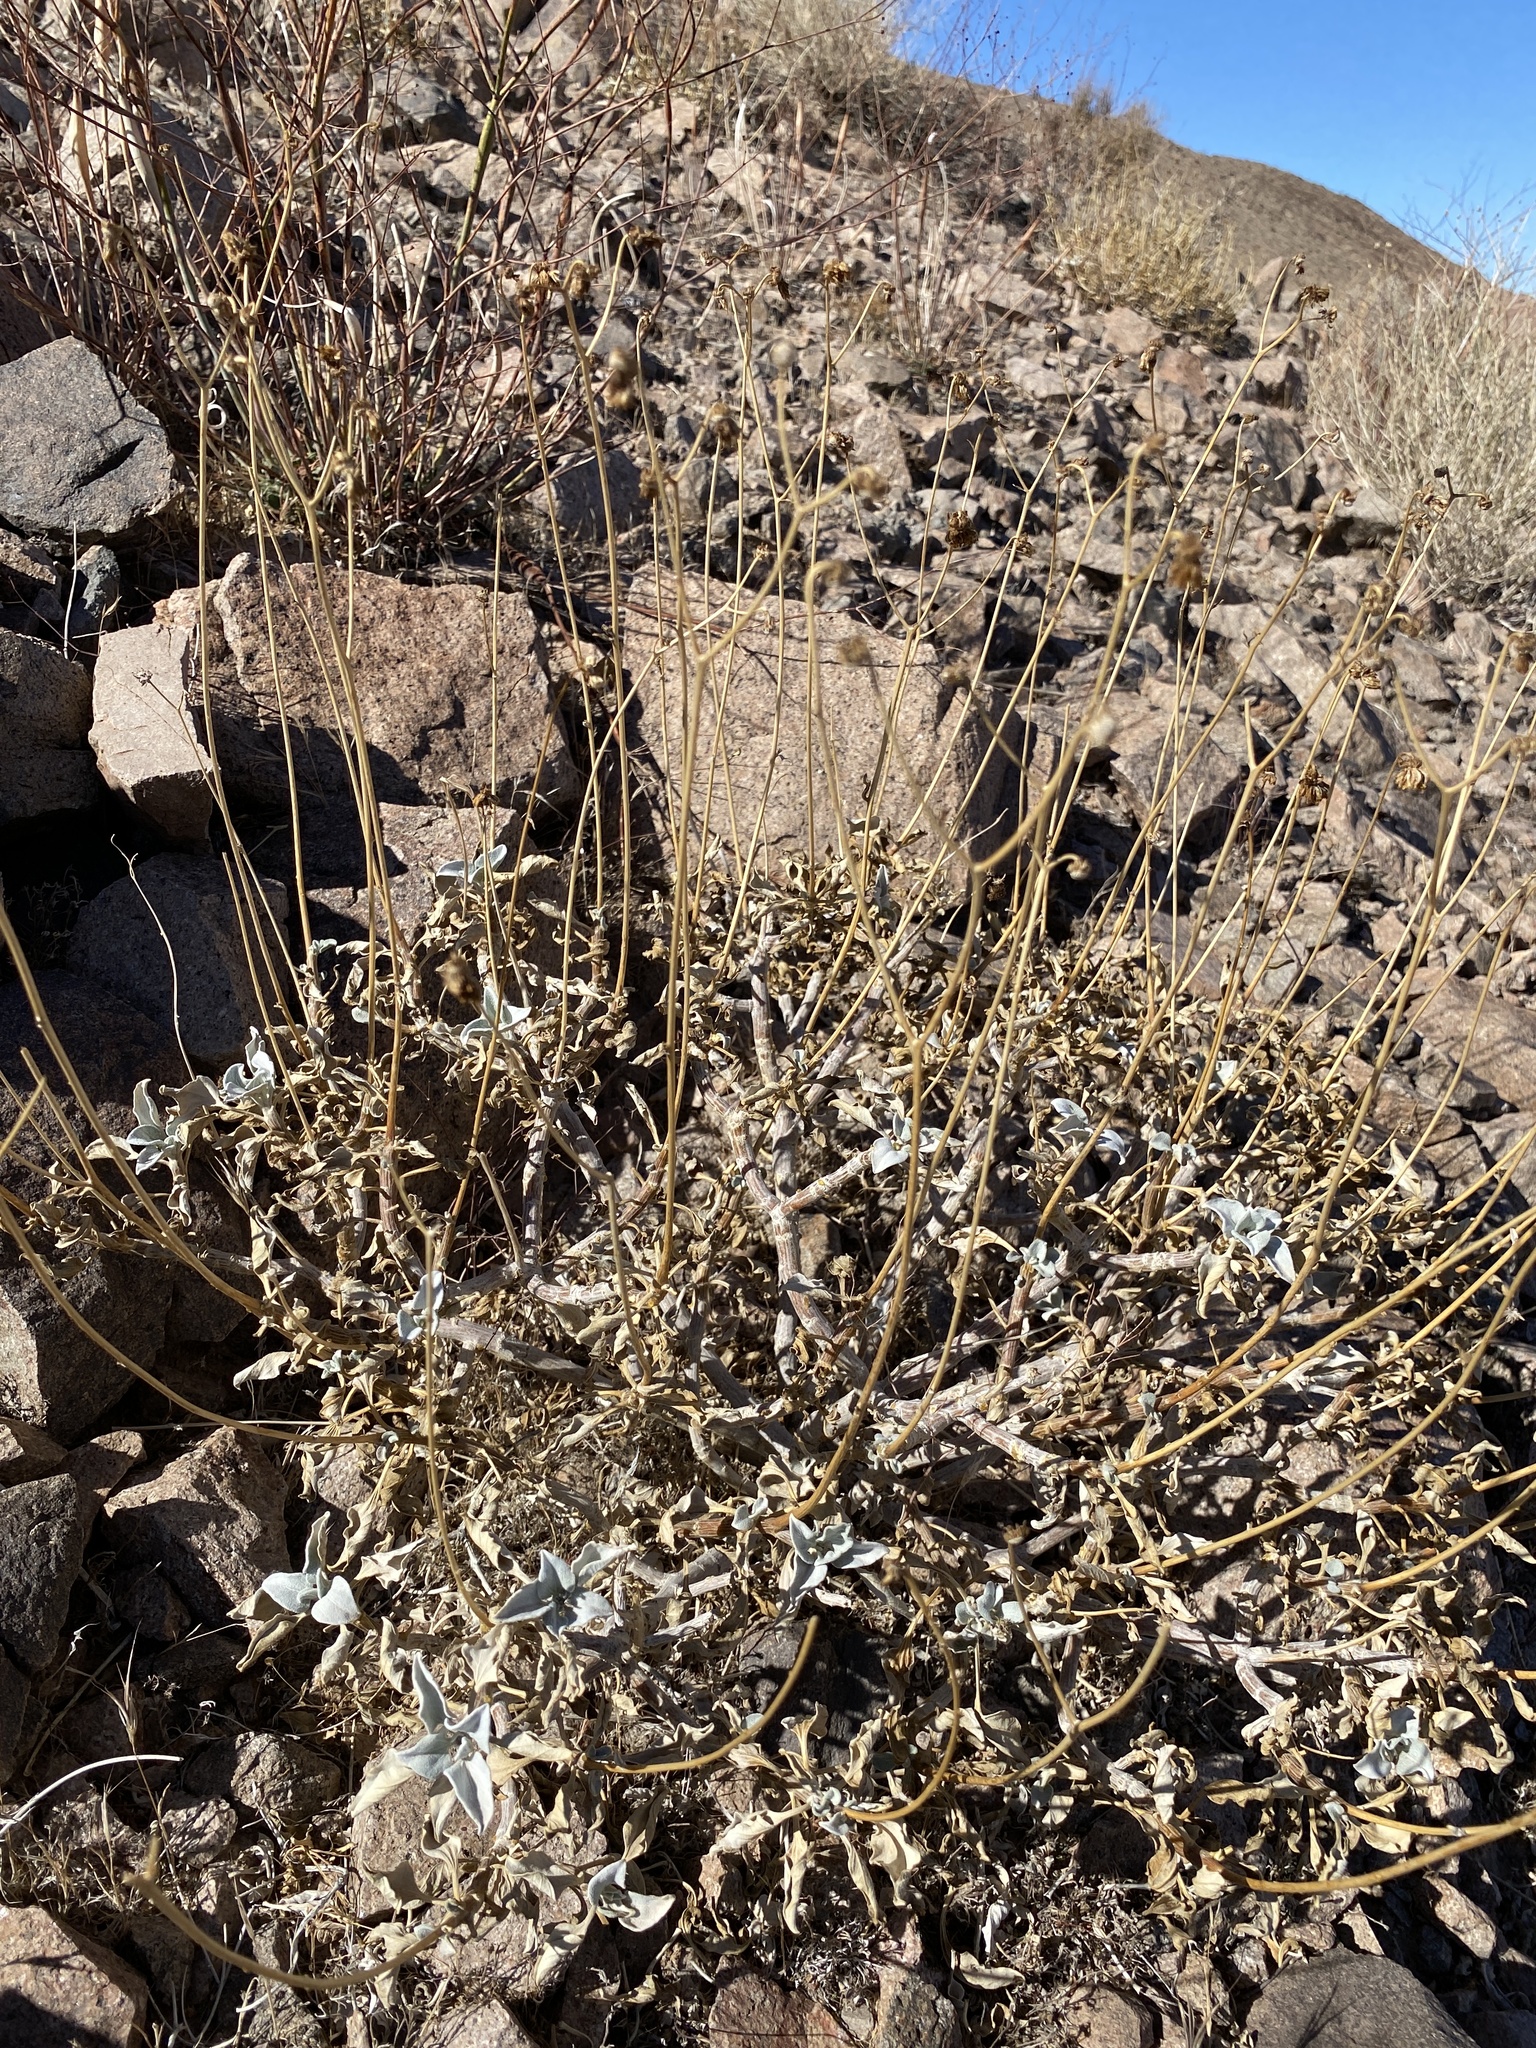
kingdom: Plantae
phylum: Tracheophyta
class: Magnoliopsida
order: Asterales
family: Asteraceae
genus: Encelia
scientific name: Encelia farinosa
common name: Brittlebush
